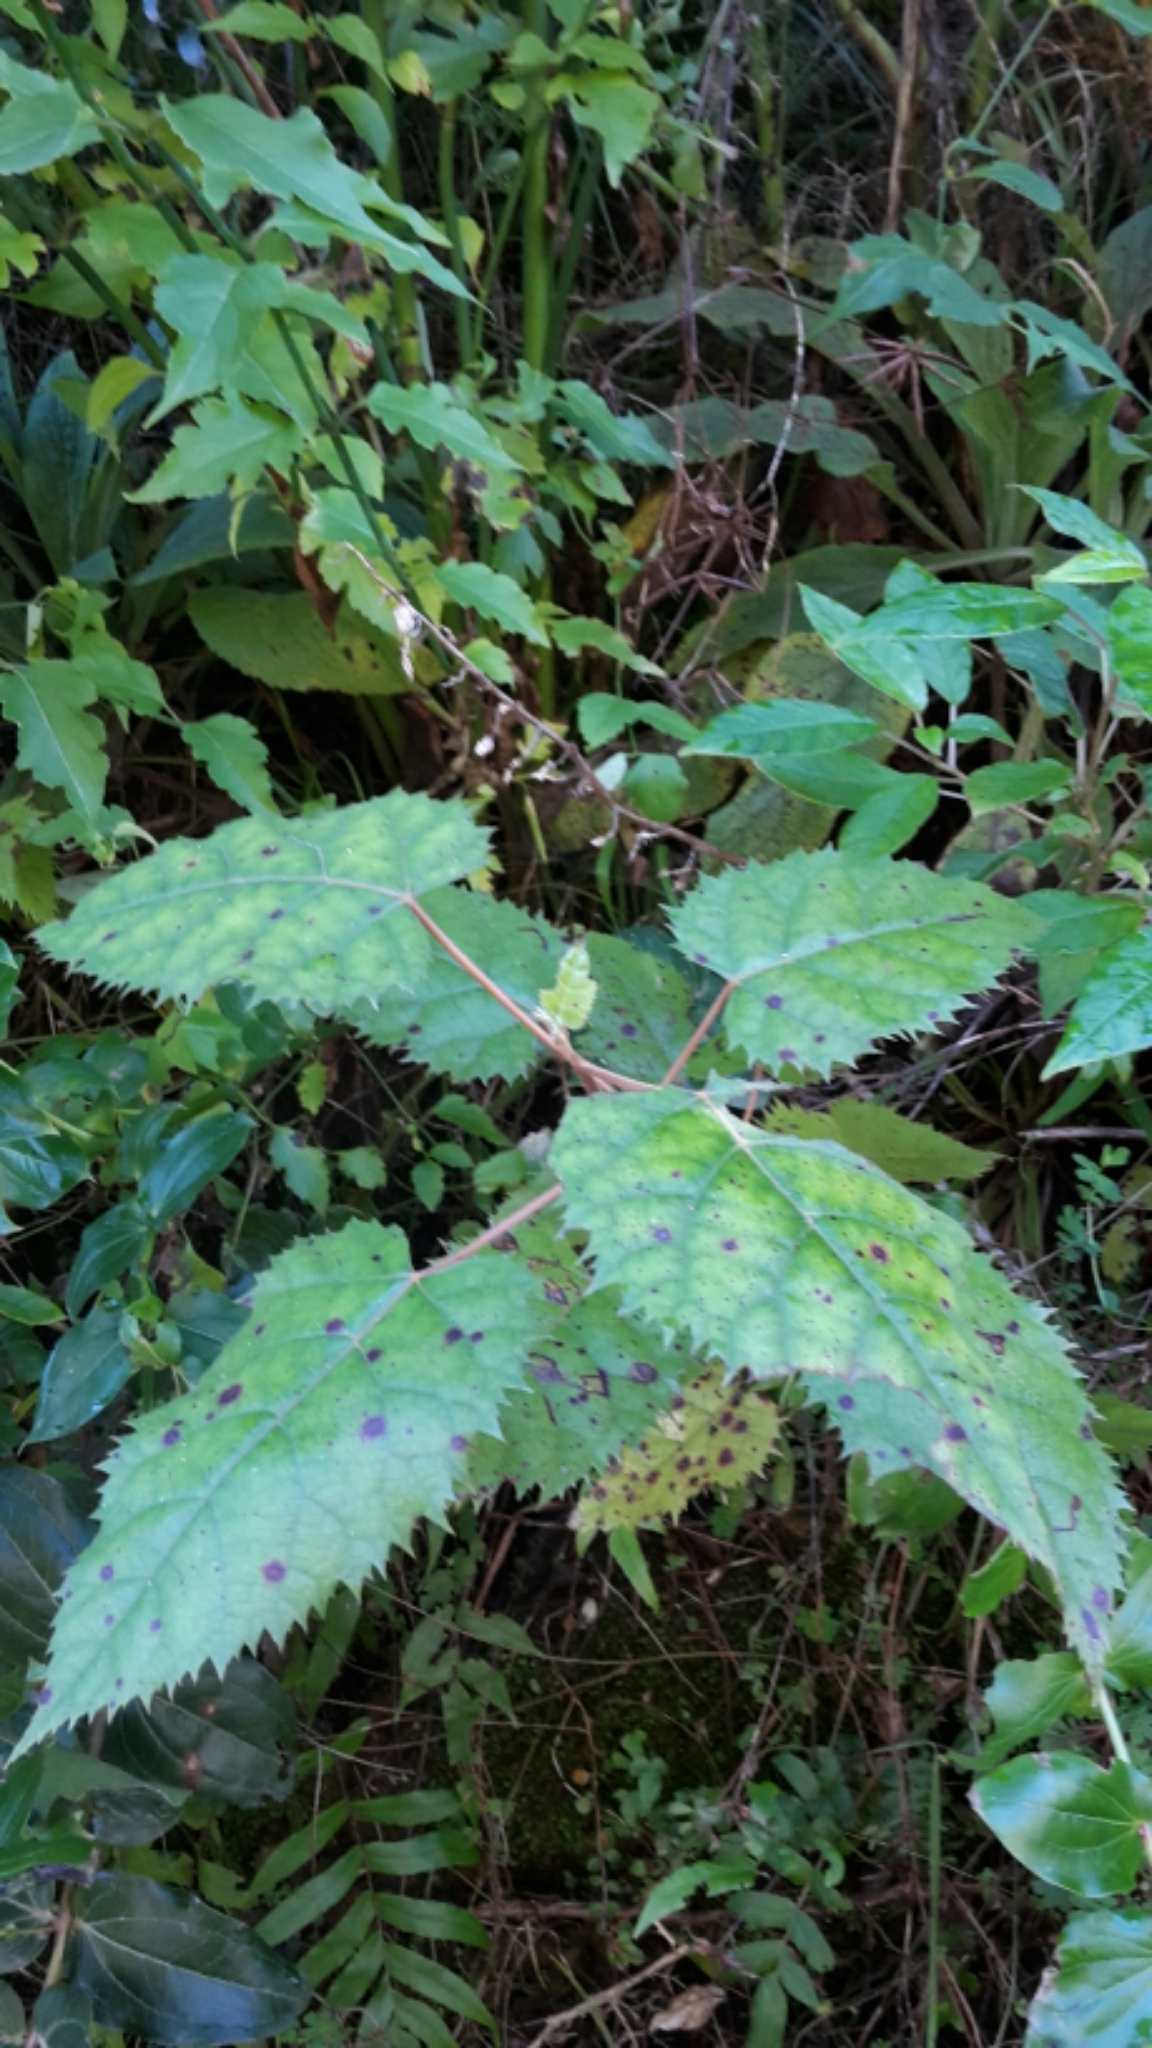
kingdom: Plantae
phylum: Tracheophyta
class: Magnoliopsida
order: Oxalidales
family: Elaeocarpaceae
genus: Aristotelia
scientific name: Aristotelia serrata
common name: New zealand wineberry
